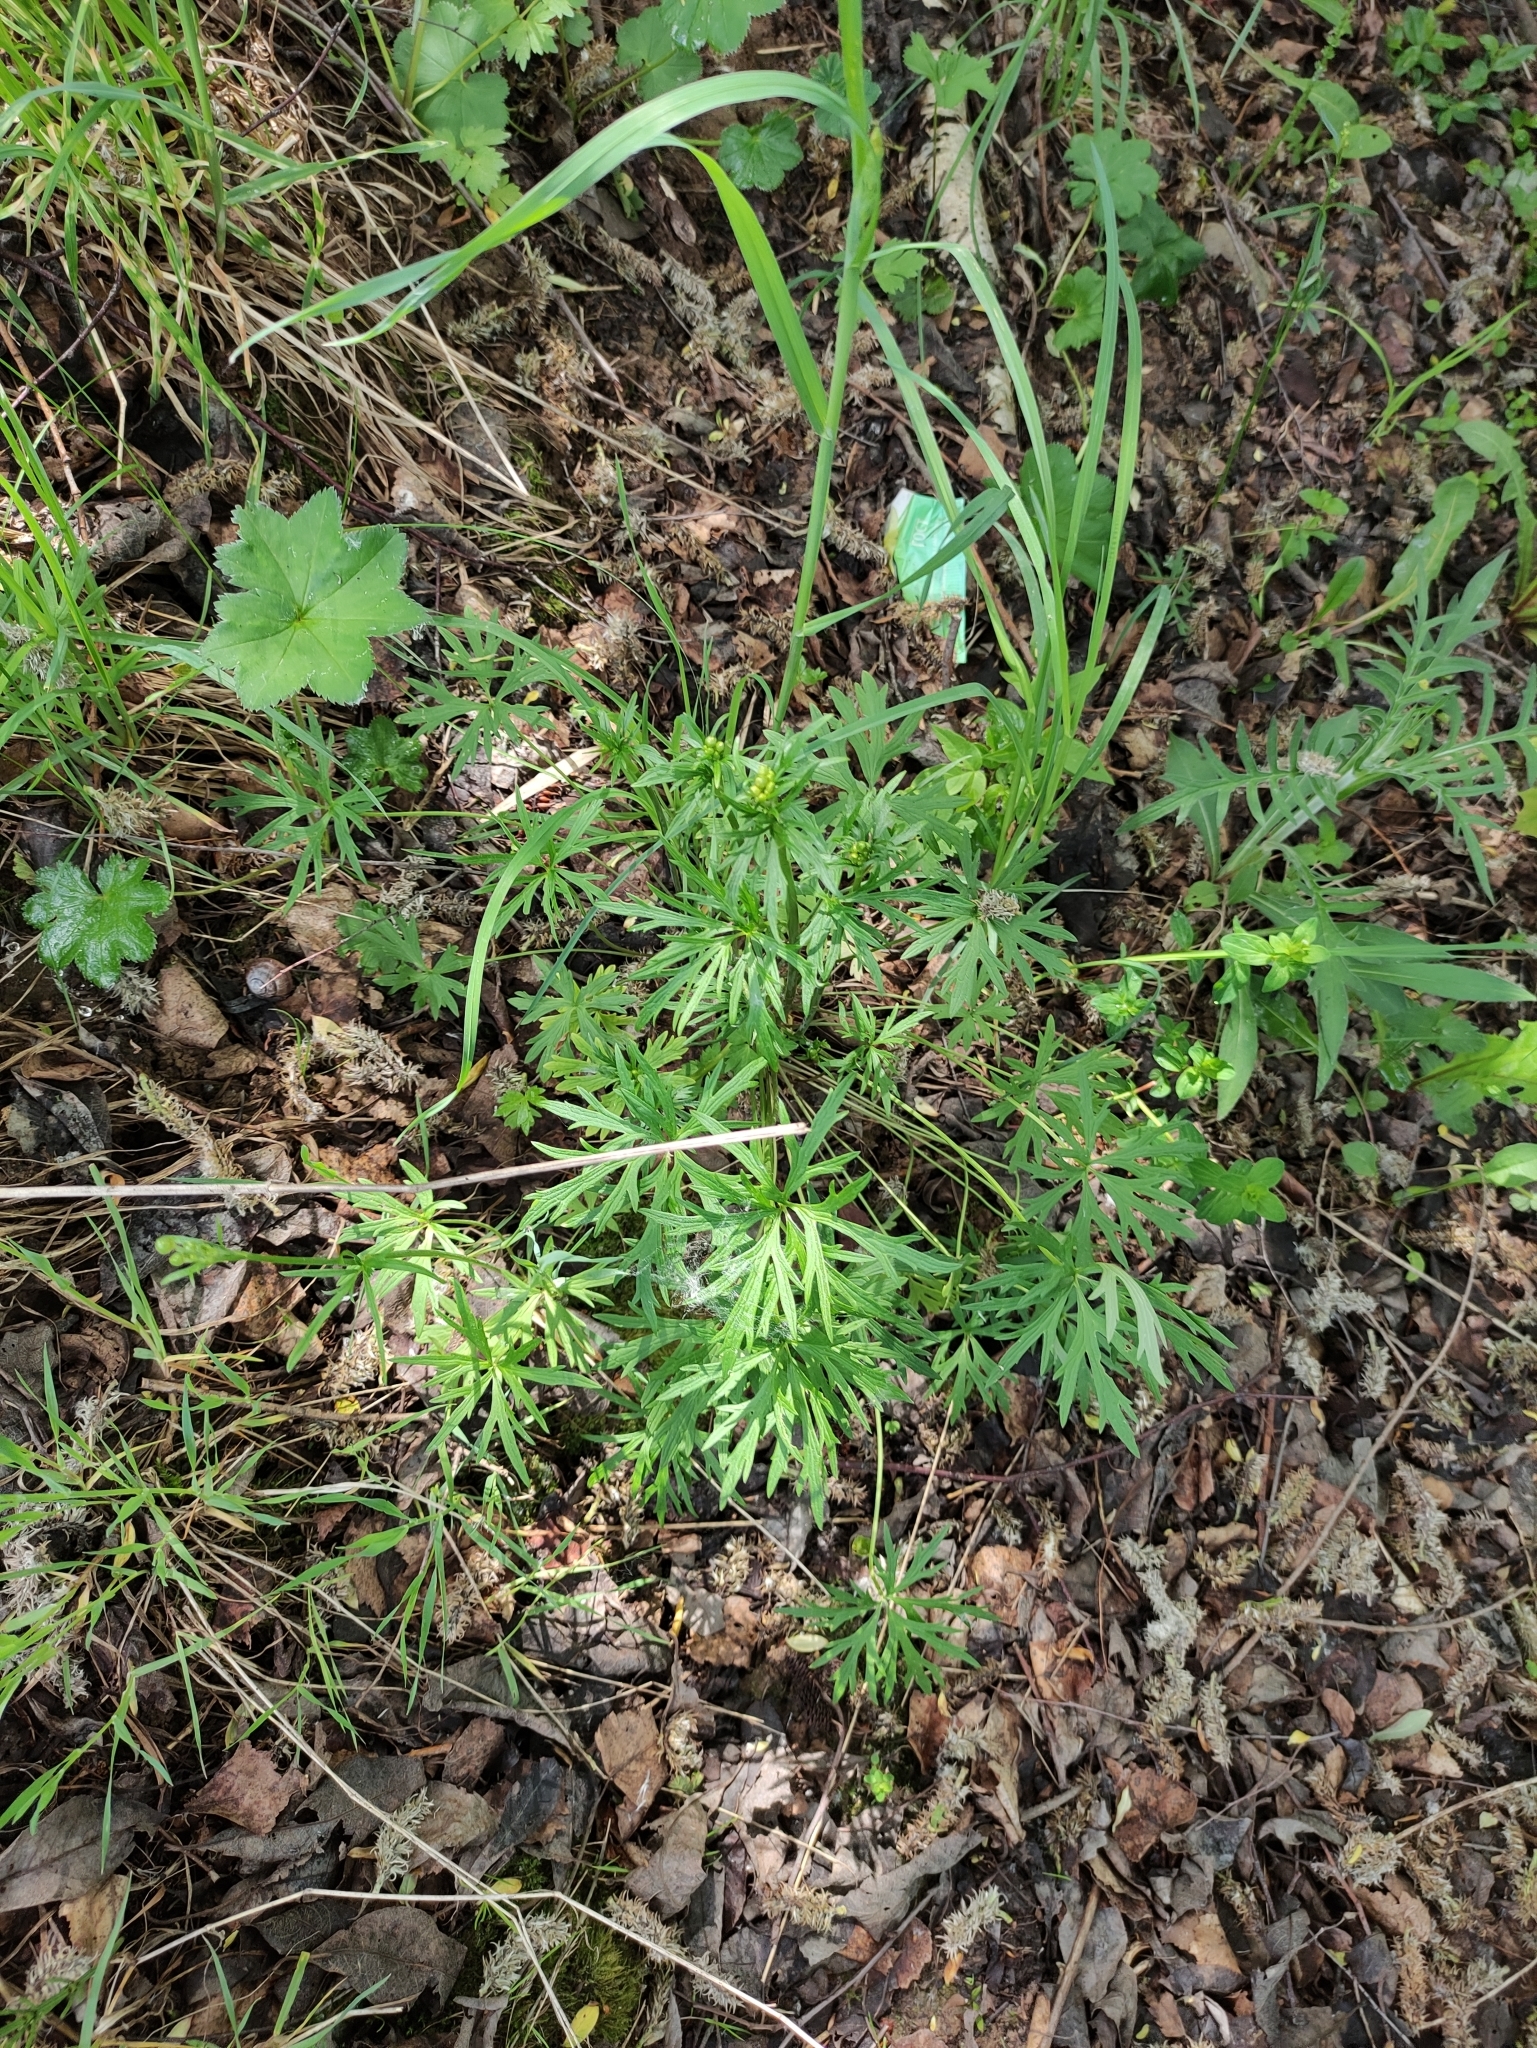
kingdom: Plantae
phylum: Tracheophyta
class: Magnoliopsida
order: Ranunculales
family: Ranunculaceae
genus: Ranunculus
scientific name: Ranunculus acris
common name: Meadow buttercup
